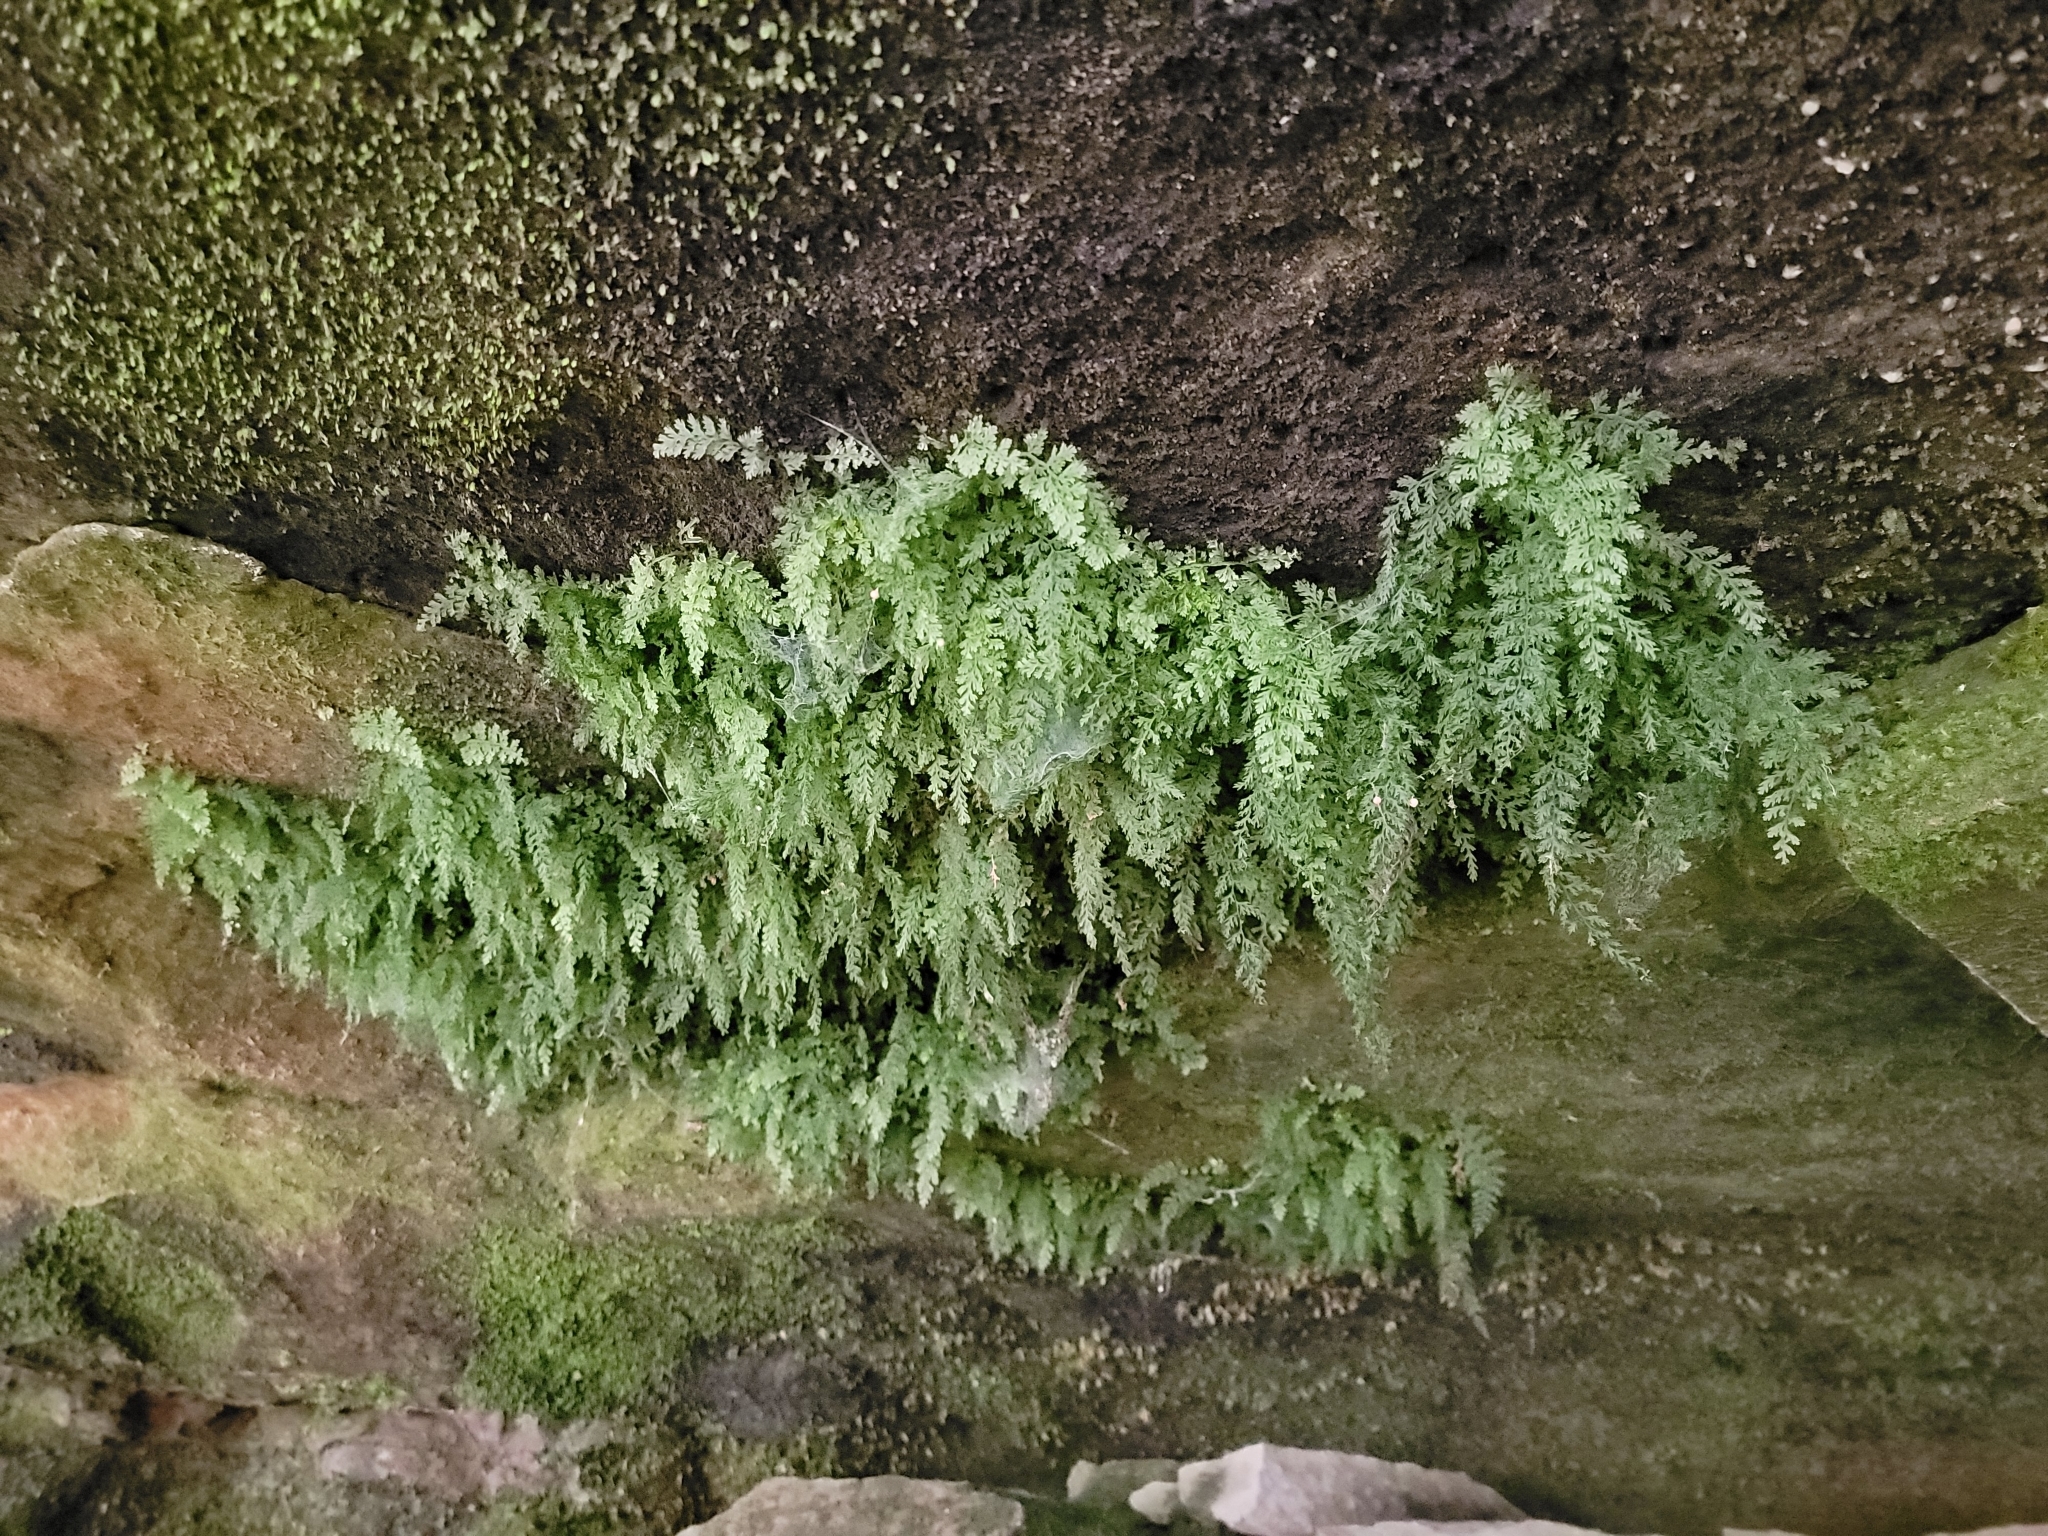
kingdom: Plantae
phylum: Tracheophyta
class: Polypodiopsida
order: Hymenophyllales
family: Hymenophyllaceae
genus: Vandenboschia
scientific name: Vandenboschia boschiana
